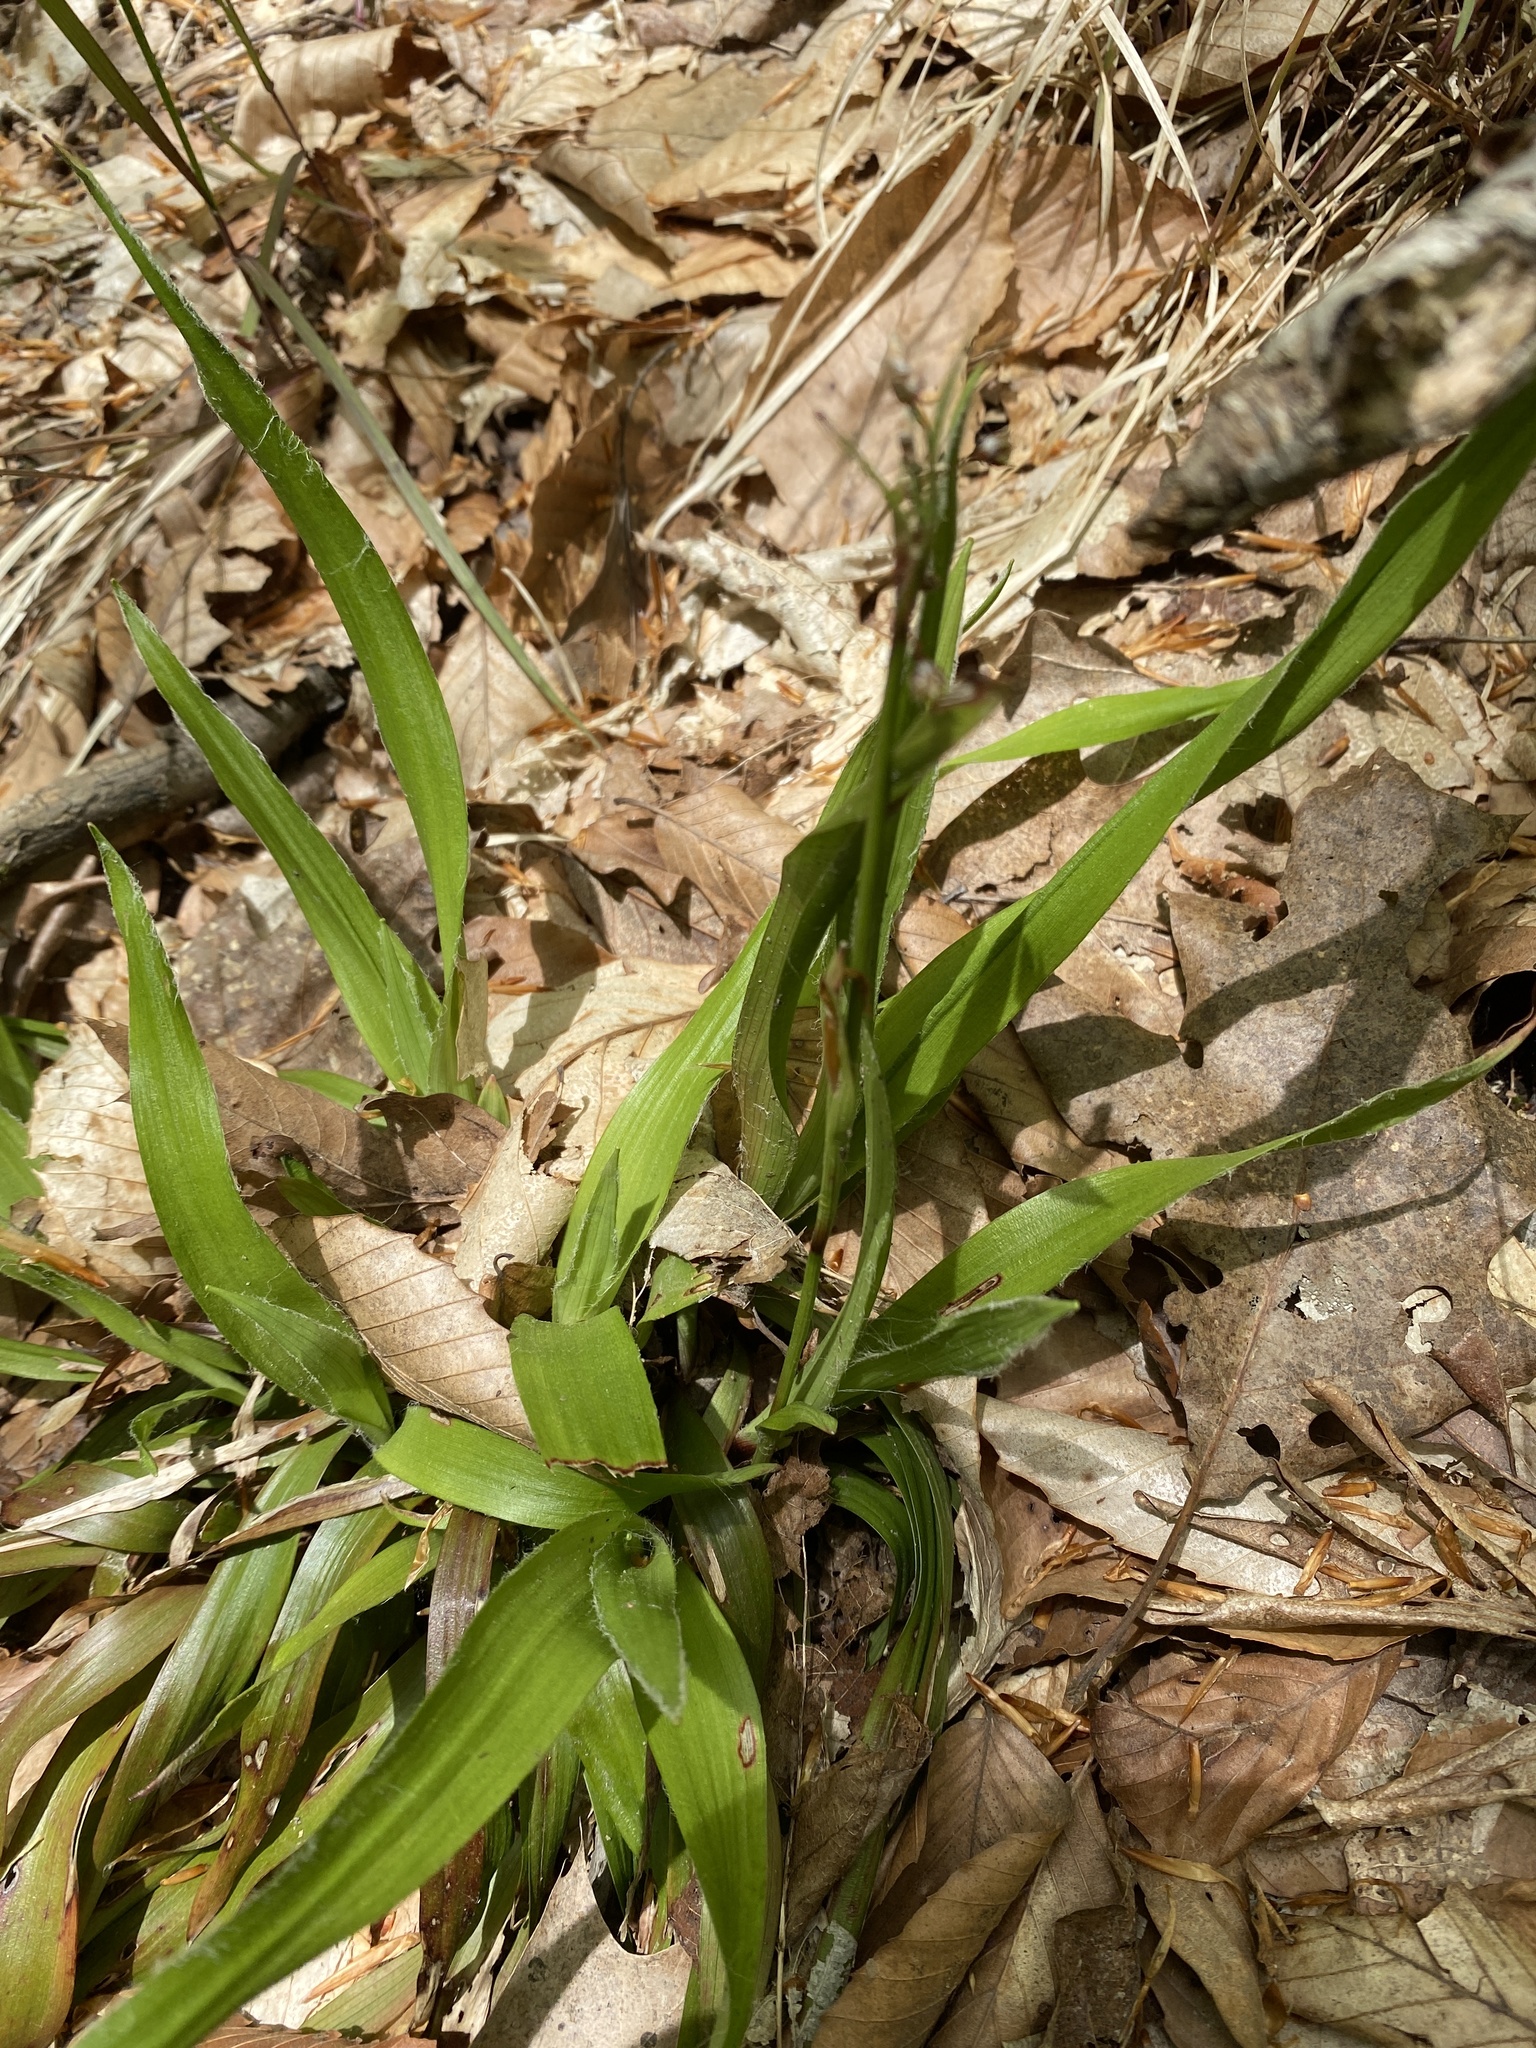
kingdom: Plantae
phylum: Tracheophyta
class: Liliopsida
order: Poales
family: Juncaceae
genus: Luzula
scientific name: Luzula acuminata
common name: Hairy woodrush
